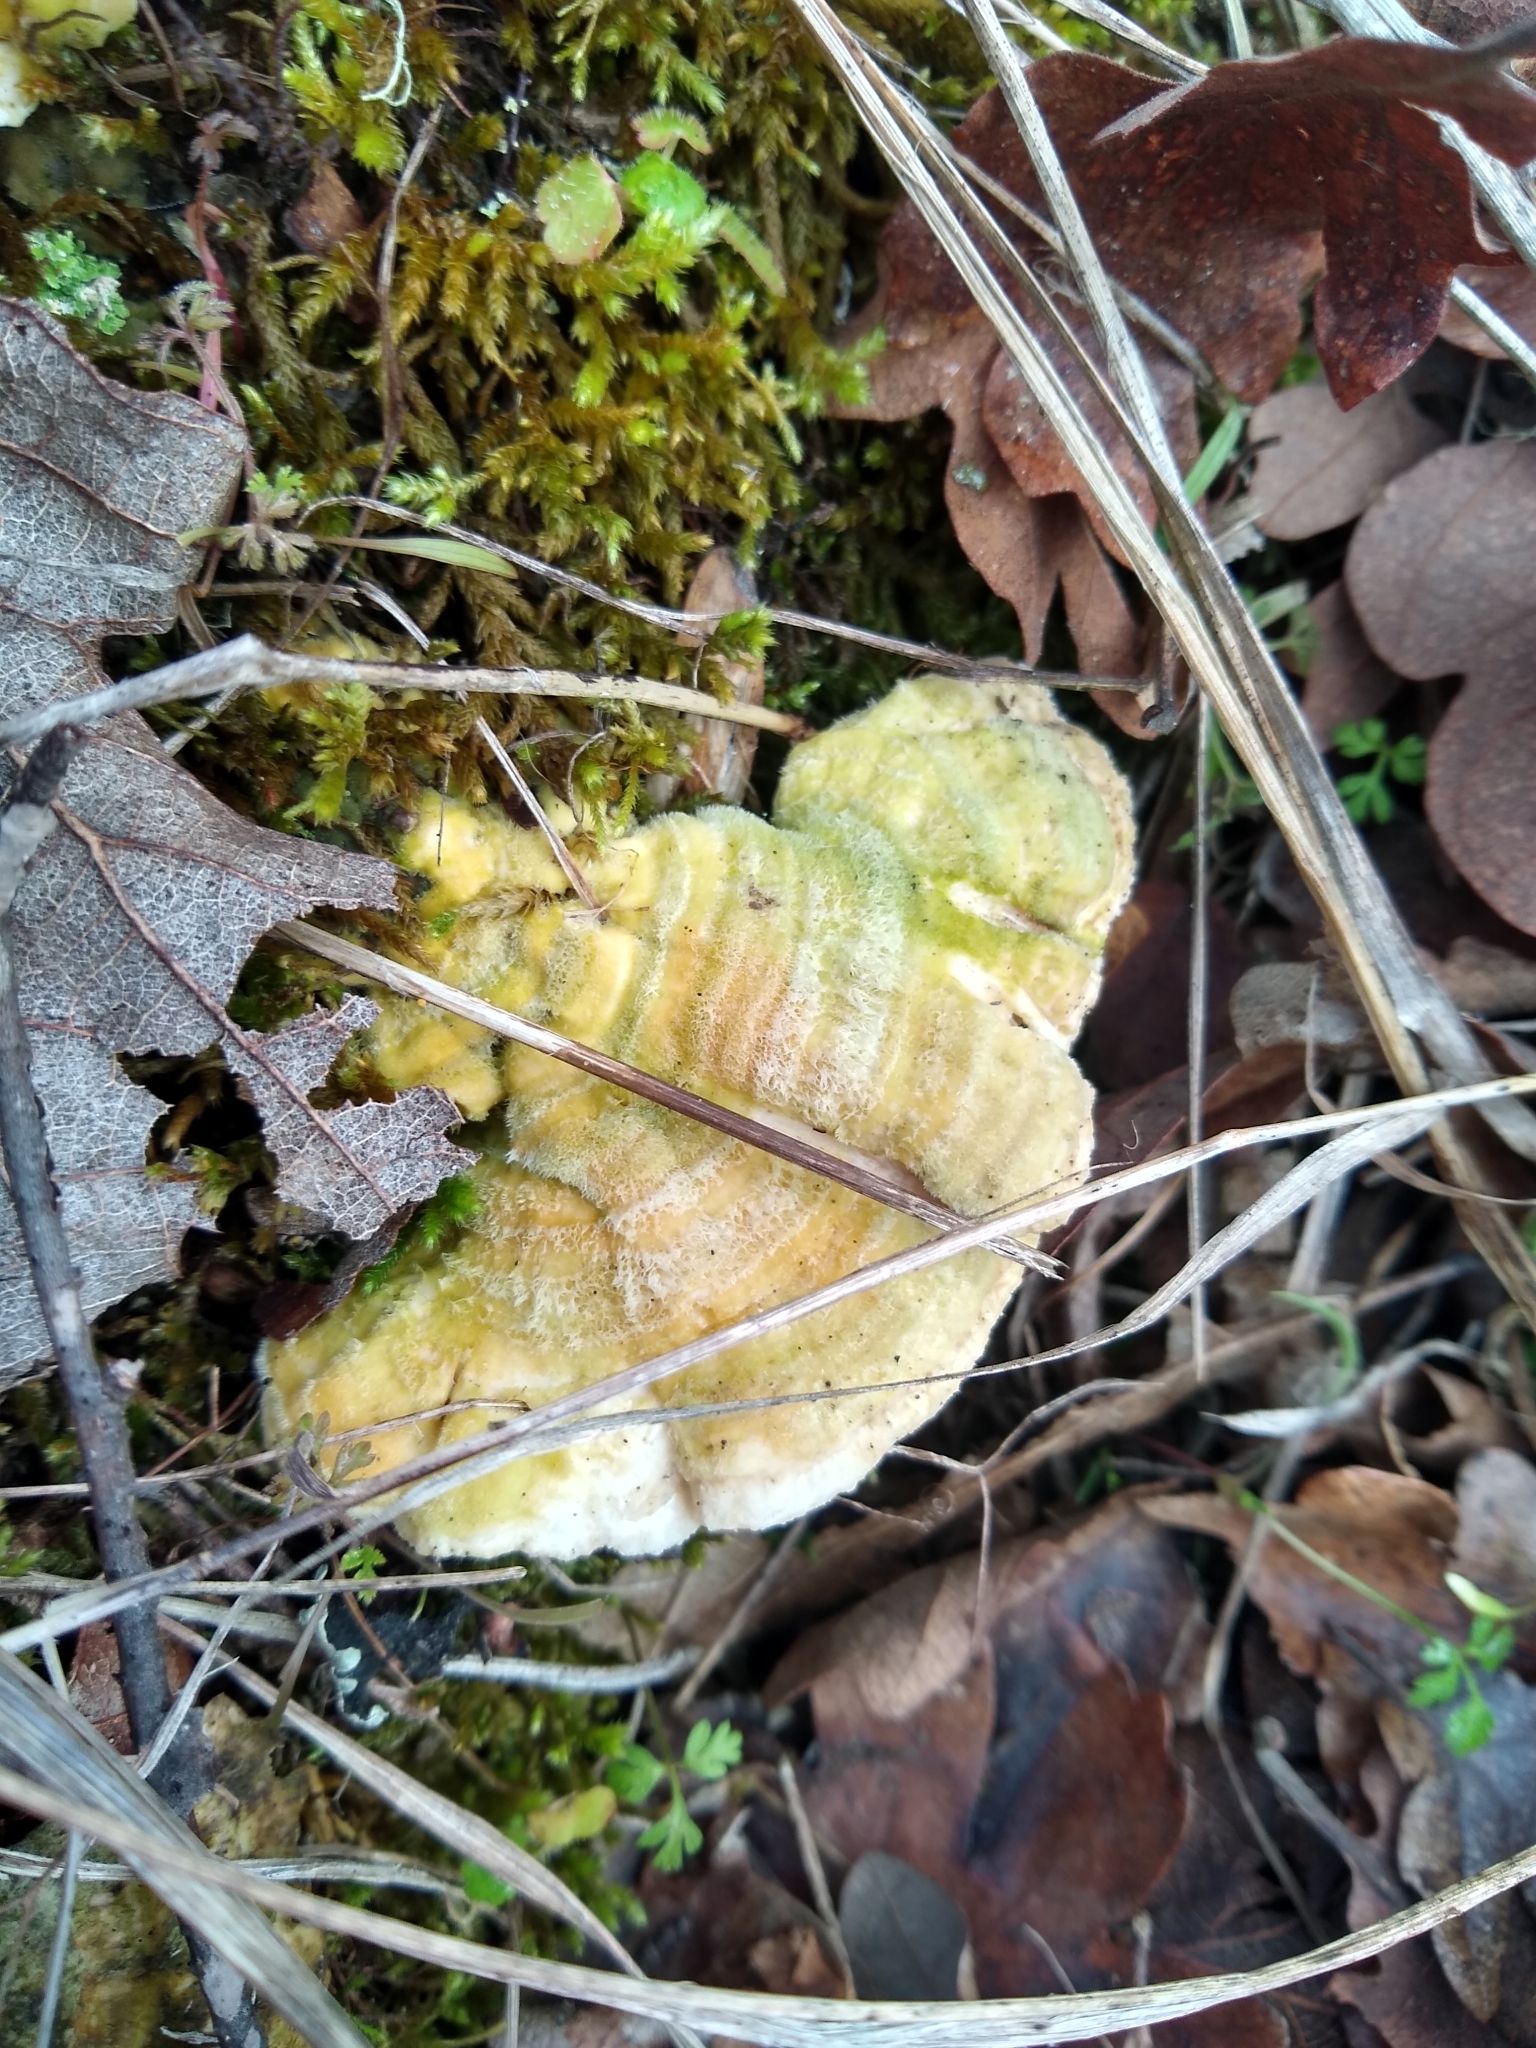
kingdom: Fungi
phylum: Basidiomycota
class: Agaricomycetes
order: Polyporales
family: Polyporaceae
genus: Lenzites
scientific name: Lenzites betulinus
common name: Birch mazegill
